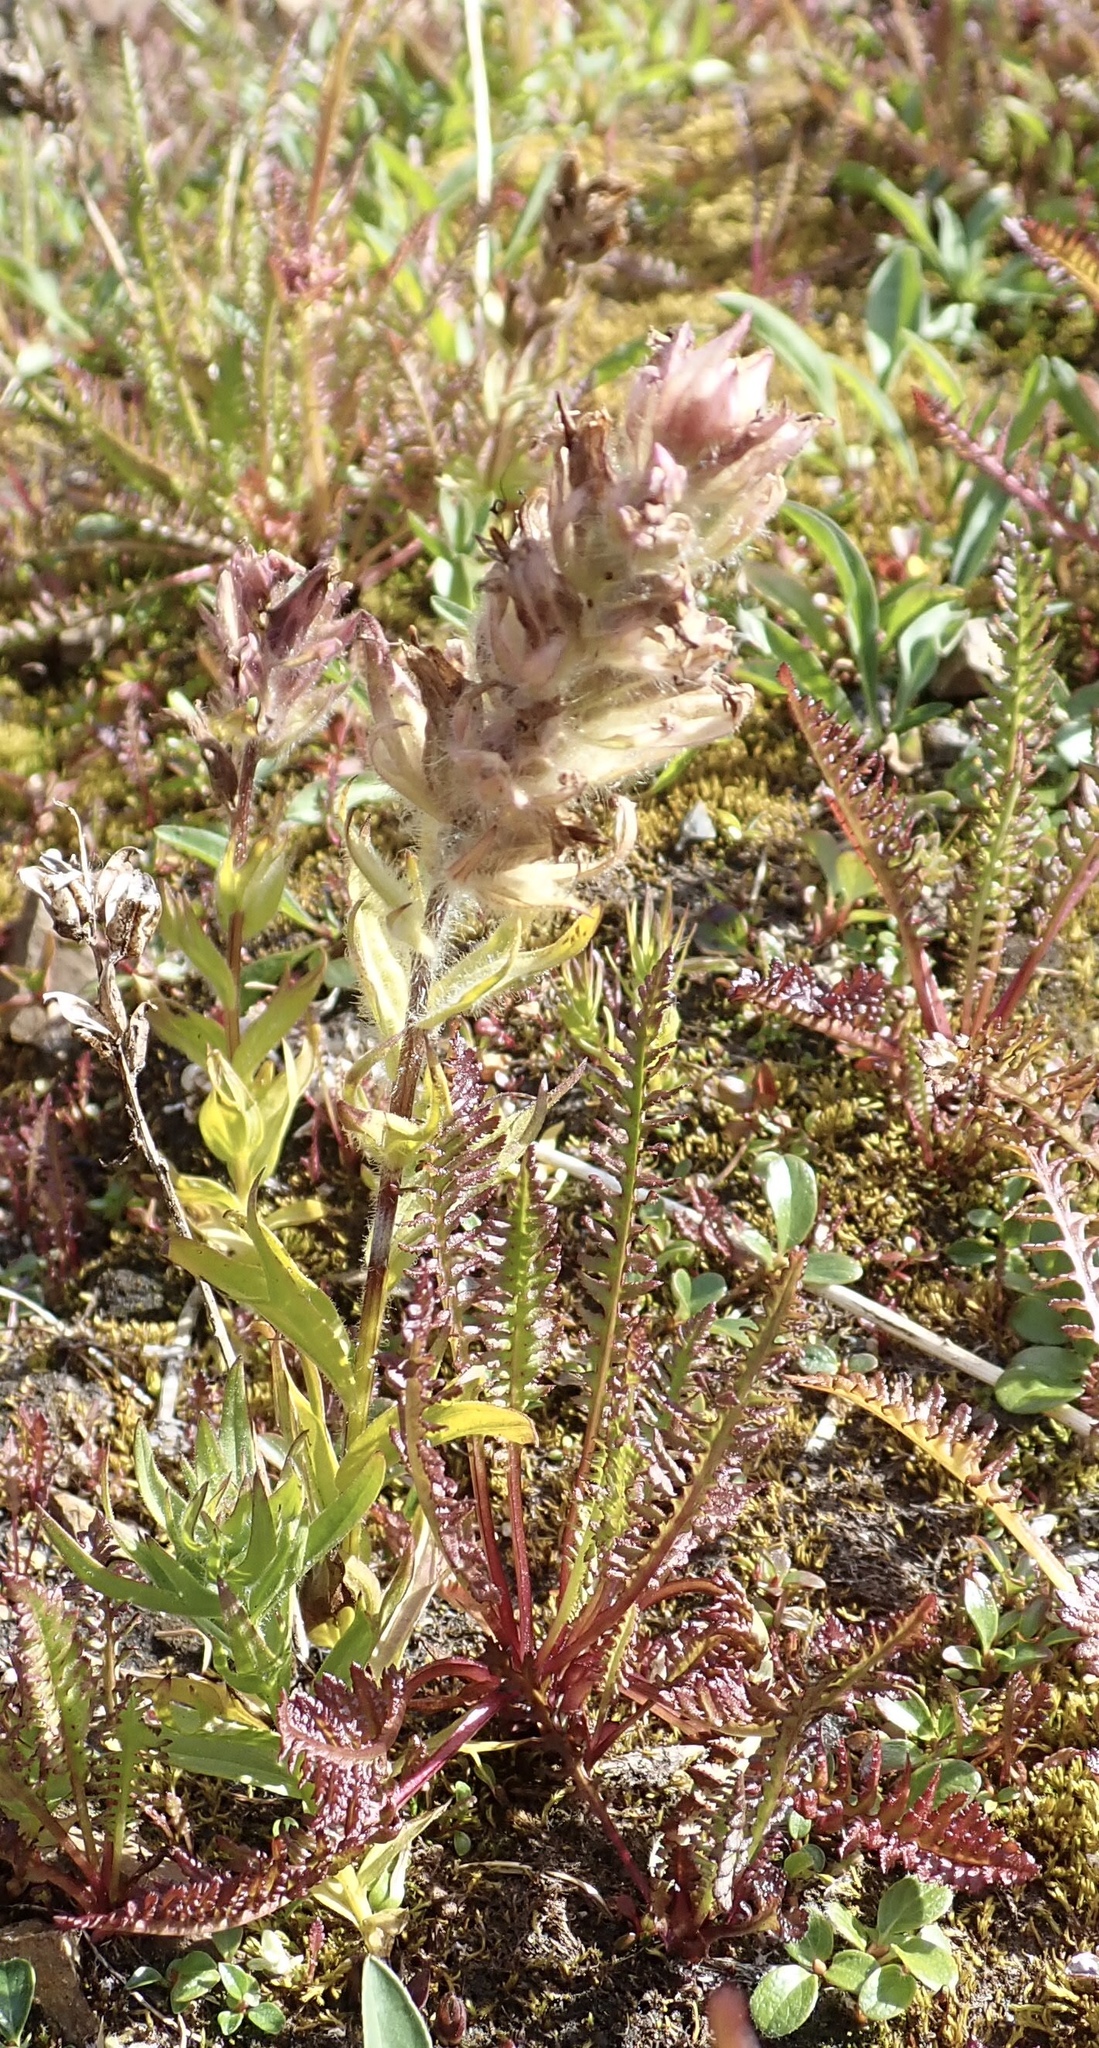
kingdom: Plantae
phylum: Tracheophyta
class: Magnoliopsida
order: Lamiales
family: Orobanchaceae
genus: Castilleja
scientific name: Castilleja parviflora
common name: Mountain paintbrush
